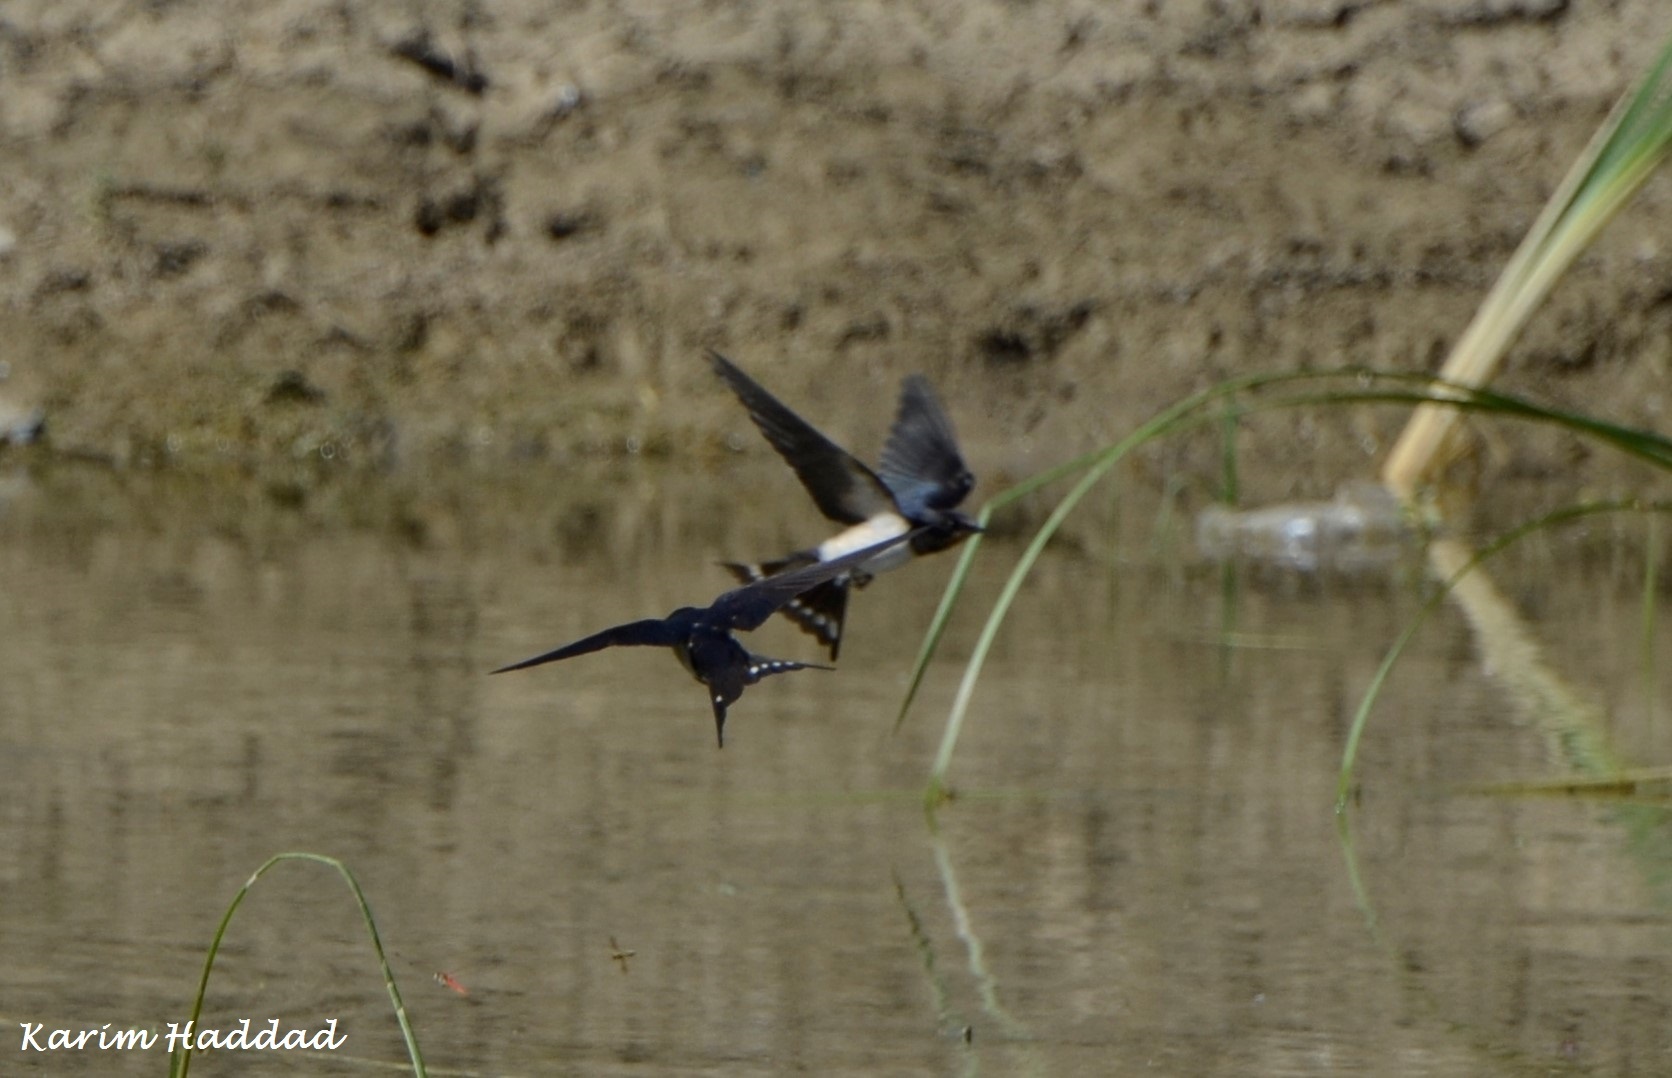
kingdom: Animalia
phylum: Chordata
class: Aves
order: Passeriformes
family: Hirundinidae
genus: Hirundo
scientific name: Hirundo rustica
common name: Barn swallow
